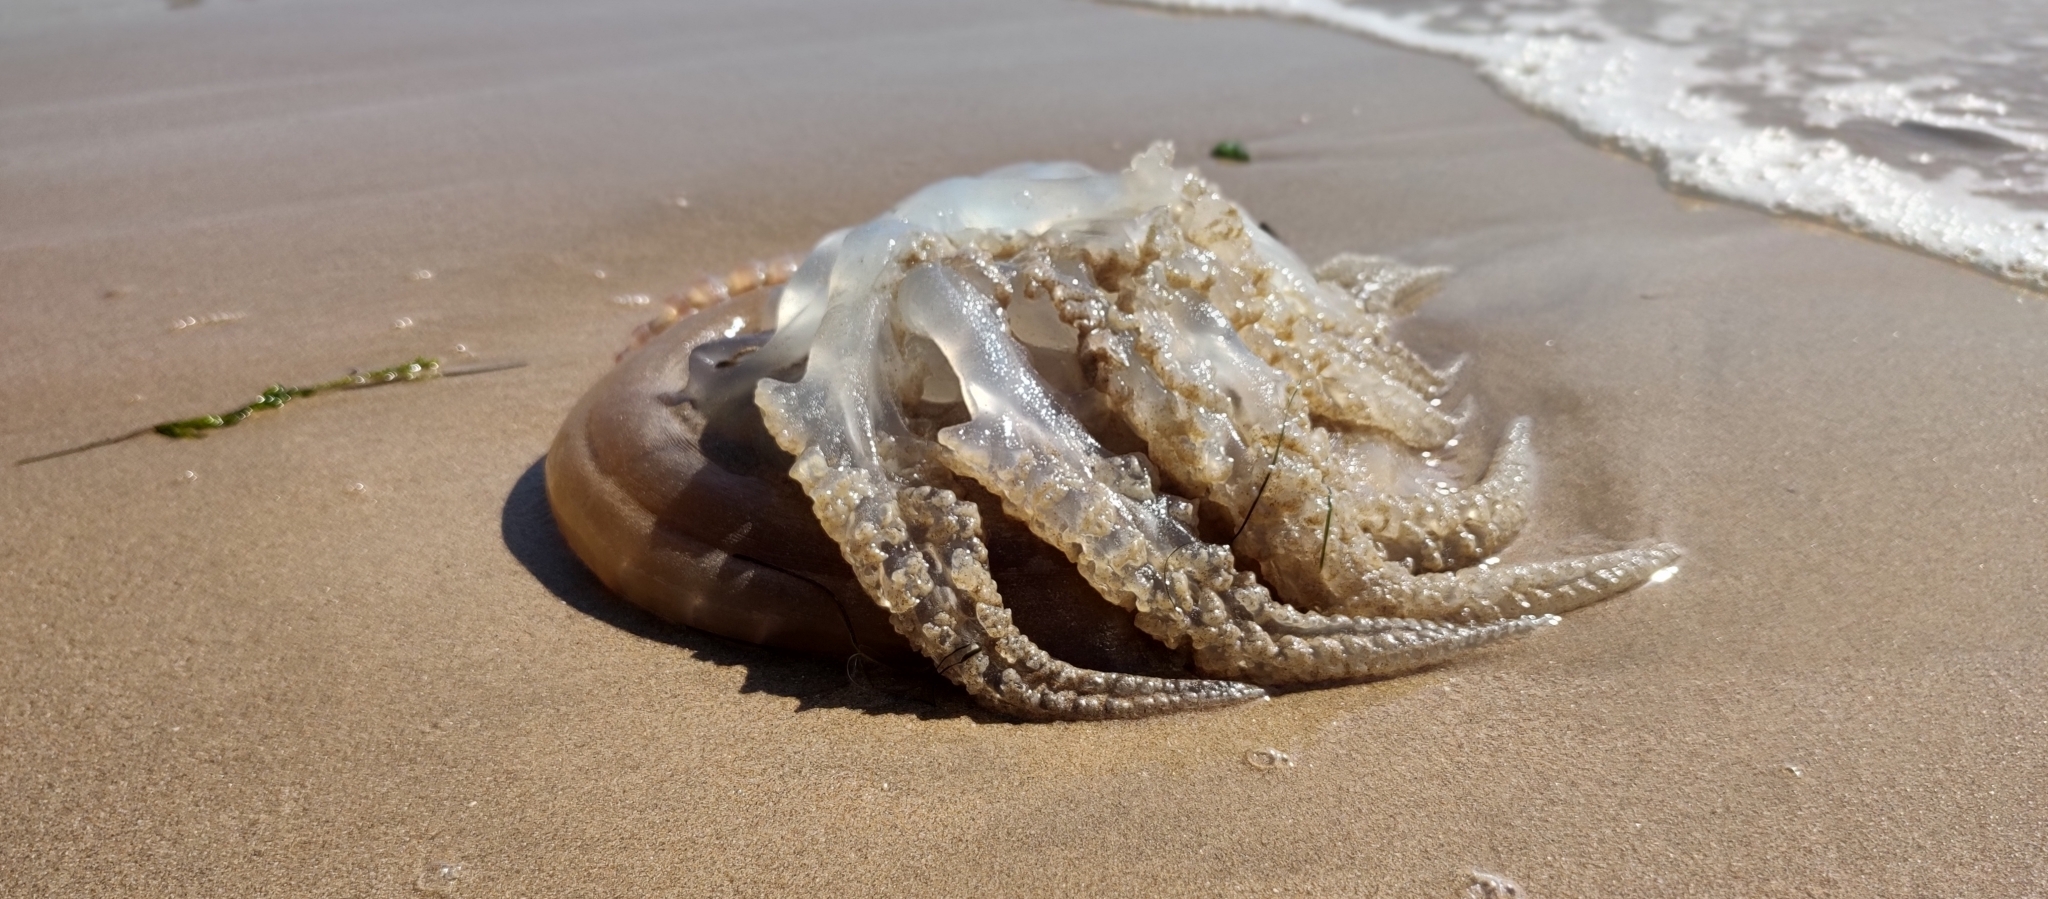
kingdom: Animalia
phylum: Cnidaria
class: Scyphozoa
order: Rhizostomeae
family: Catostylidae
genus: Catostylus
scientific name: Catostylus tagi
